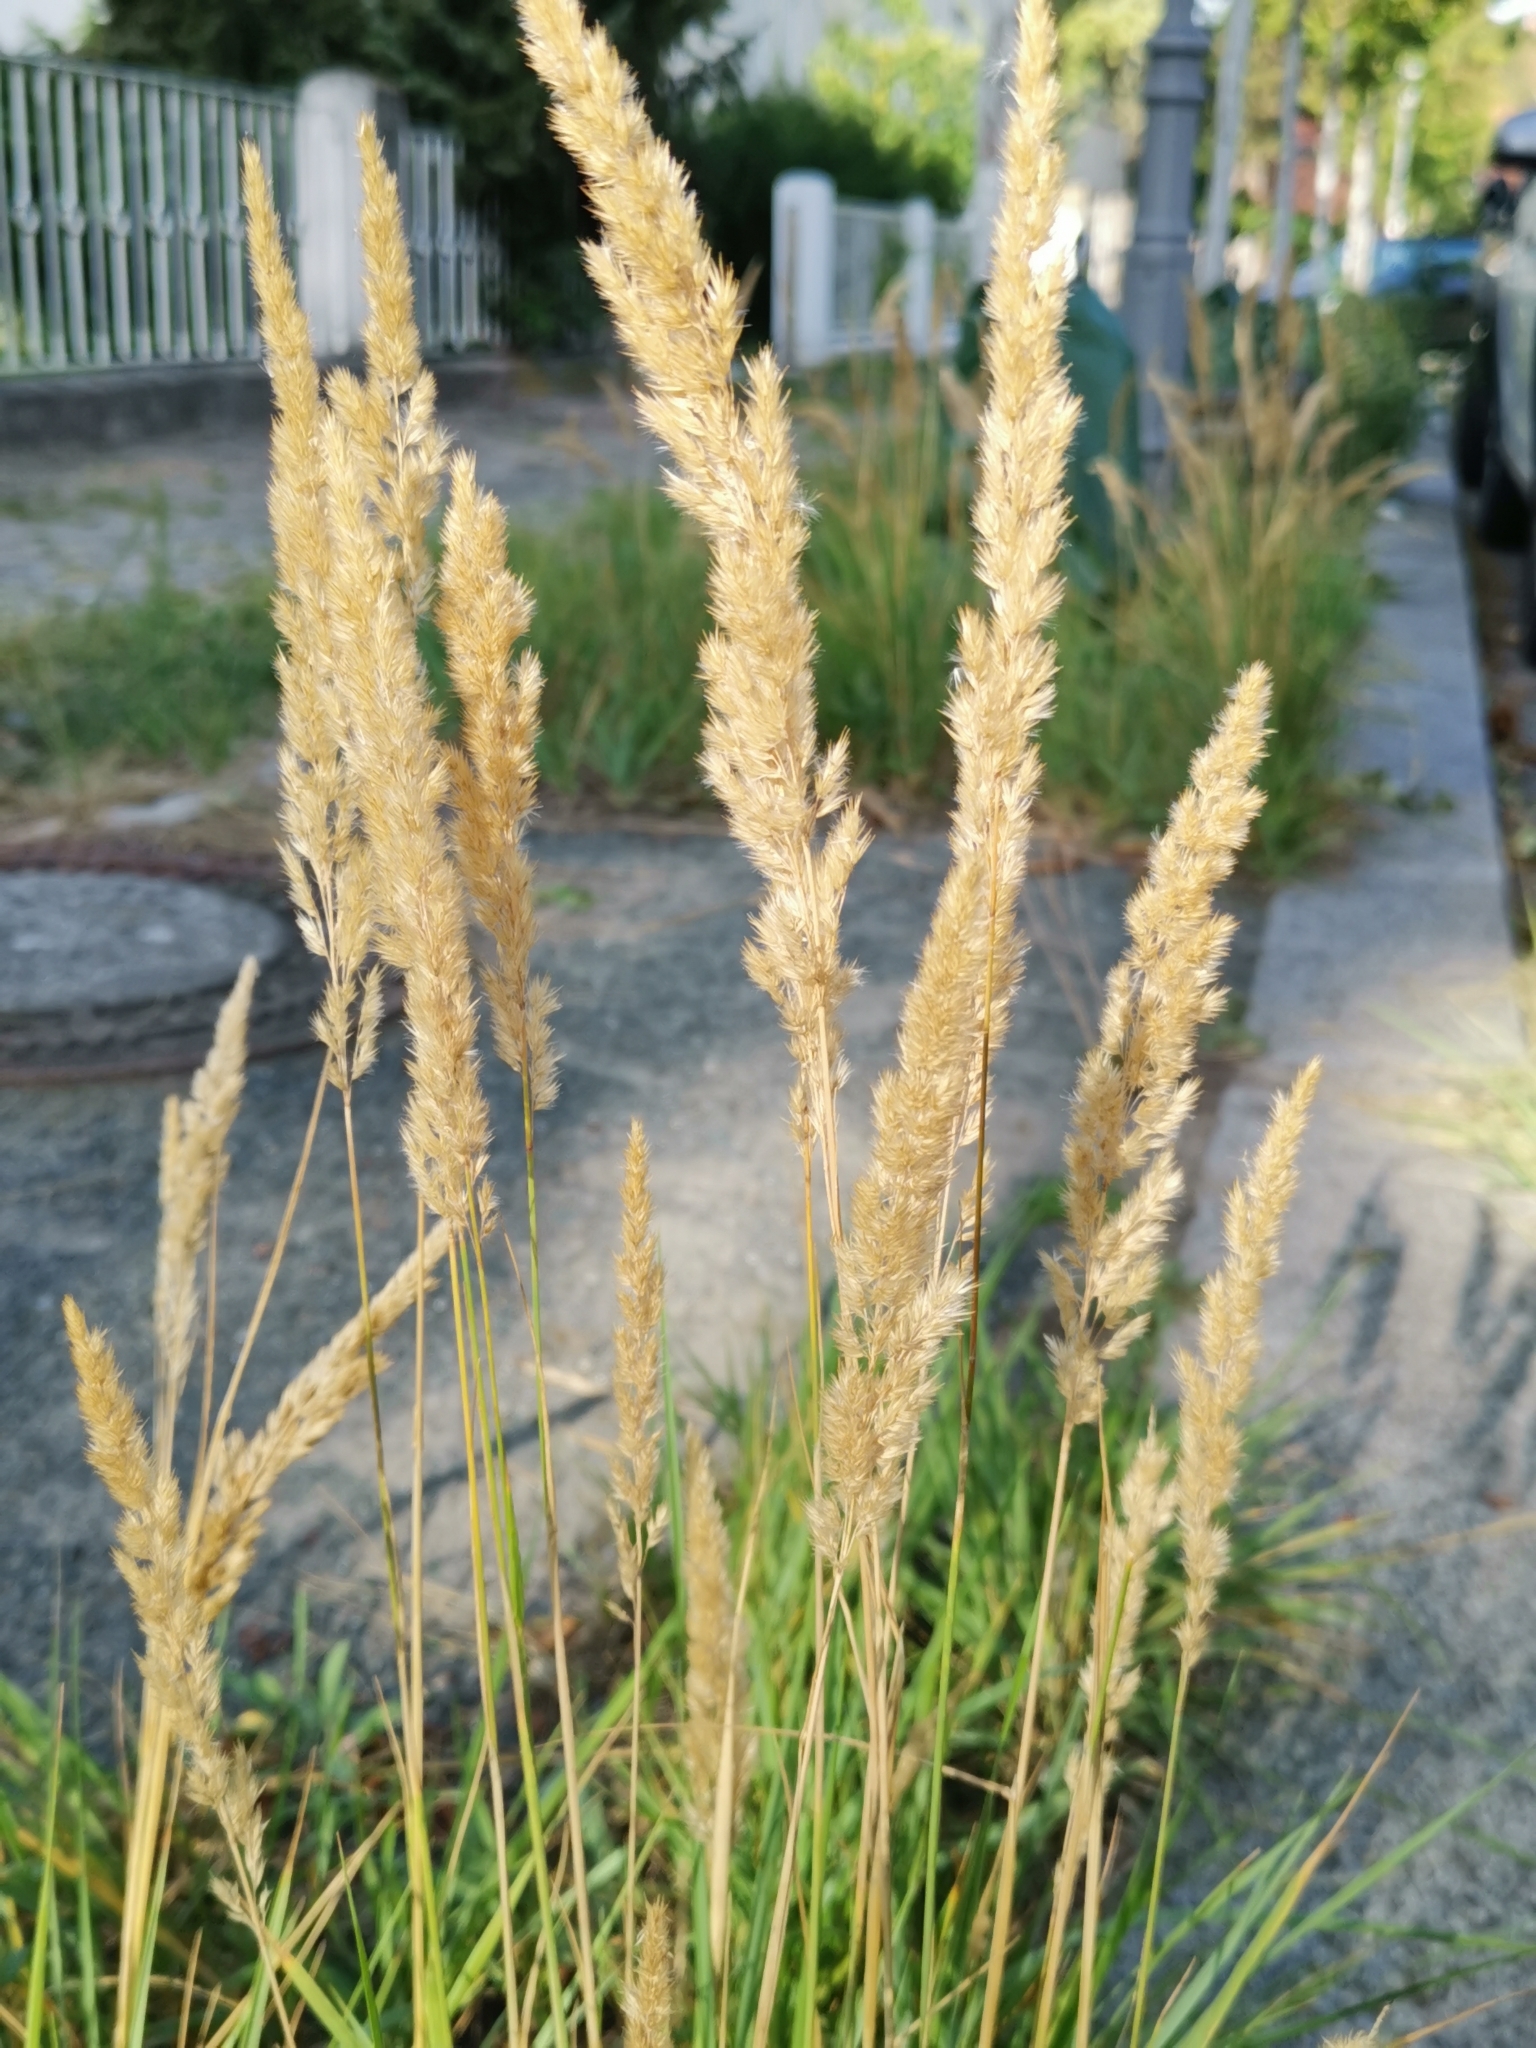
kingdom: Plantae
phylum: Tracheophyta
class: Liliopsida
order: Poales
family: Poaceae
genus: Calamagrostis
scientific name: Calamagrostis epigejos
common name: Wood small-reed
